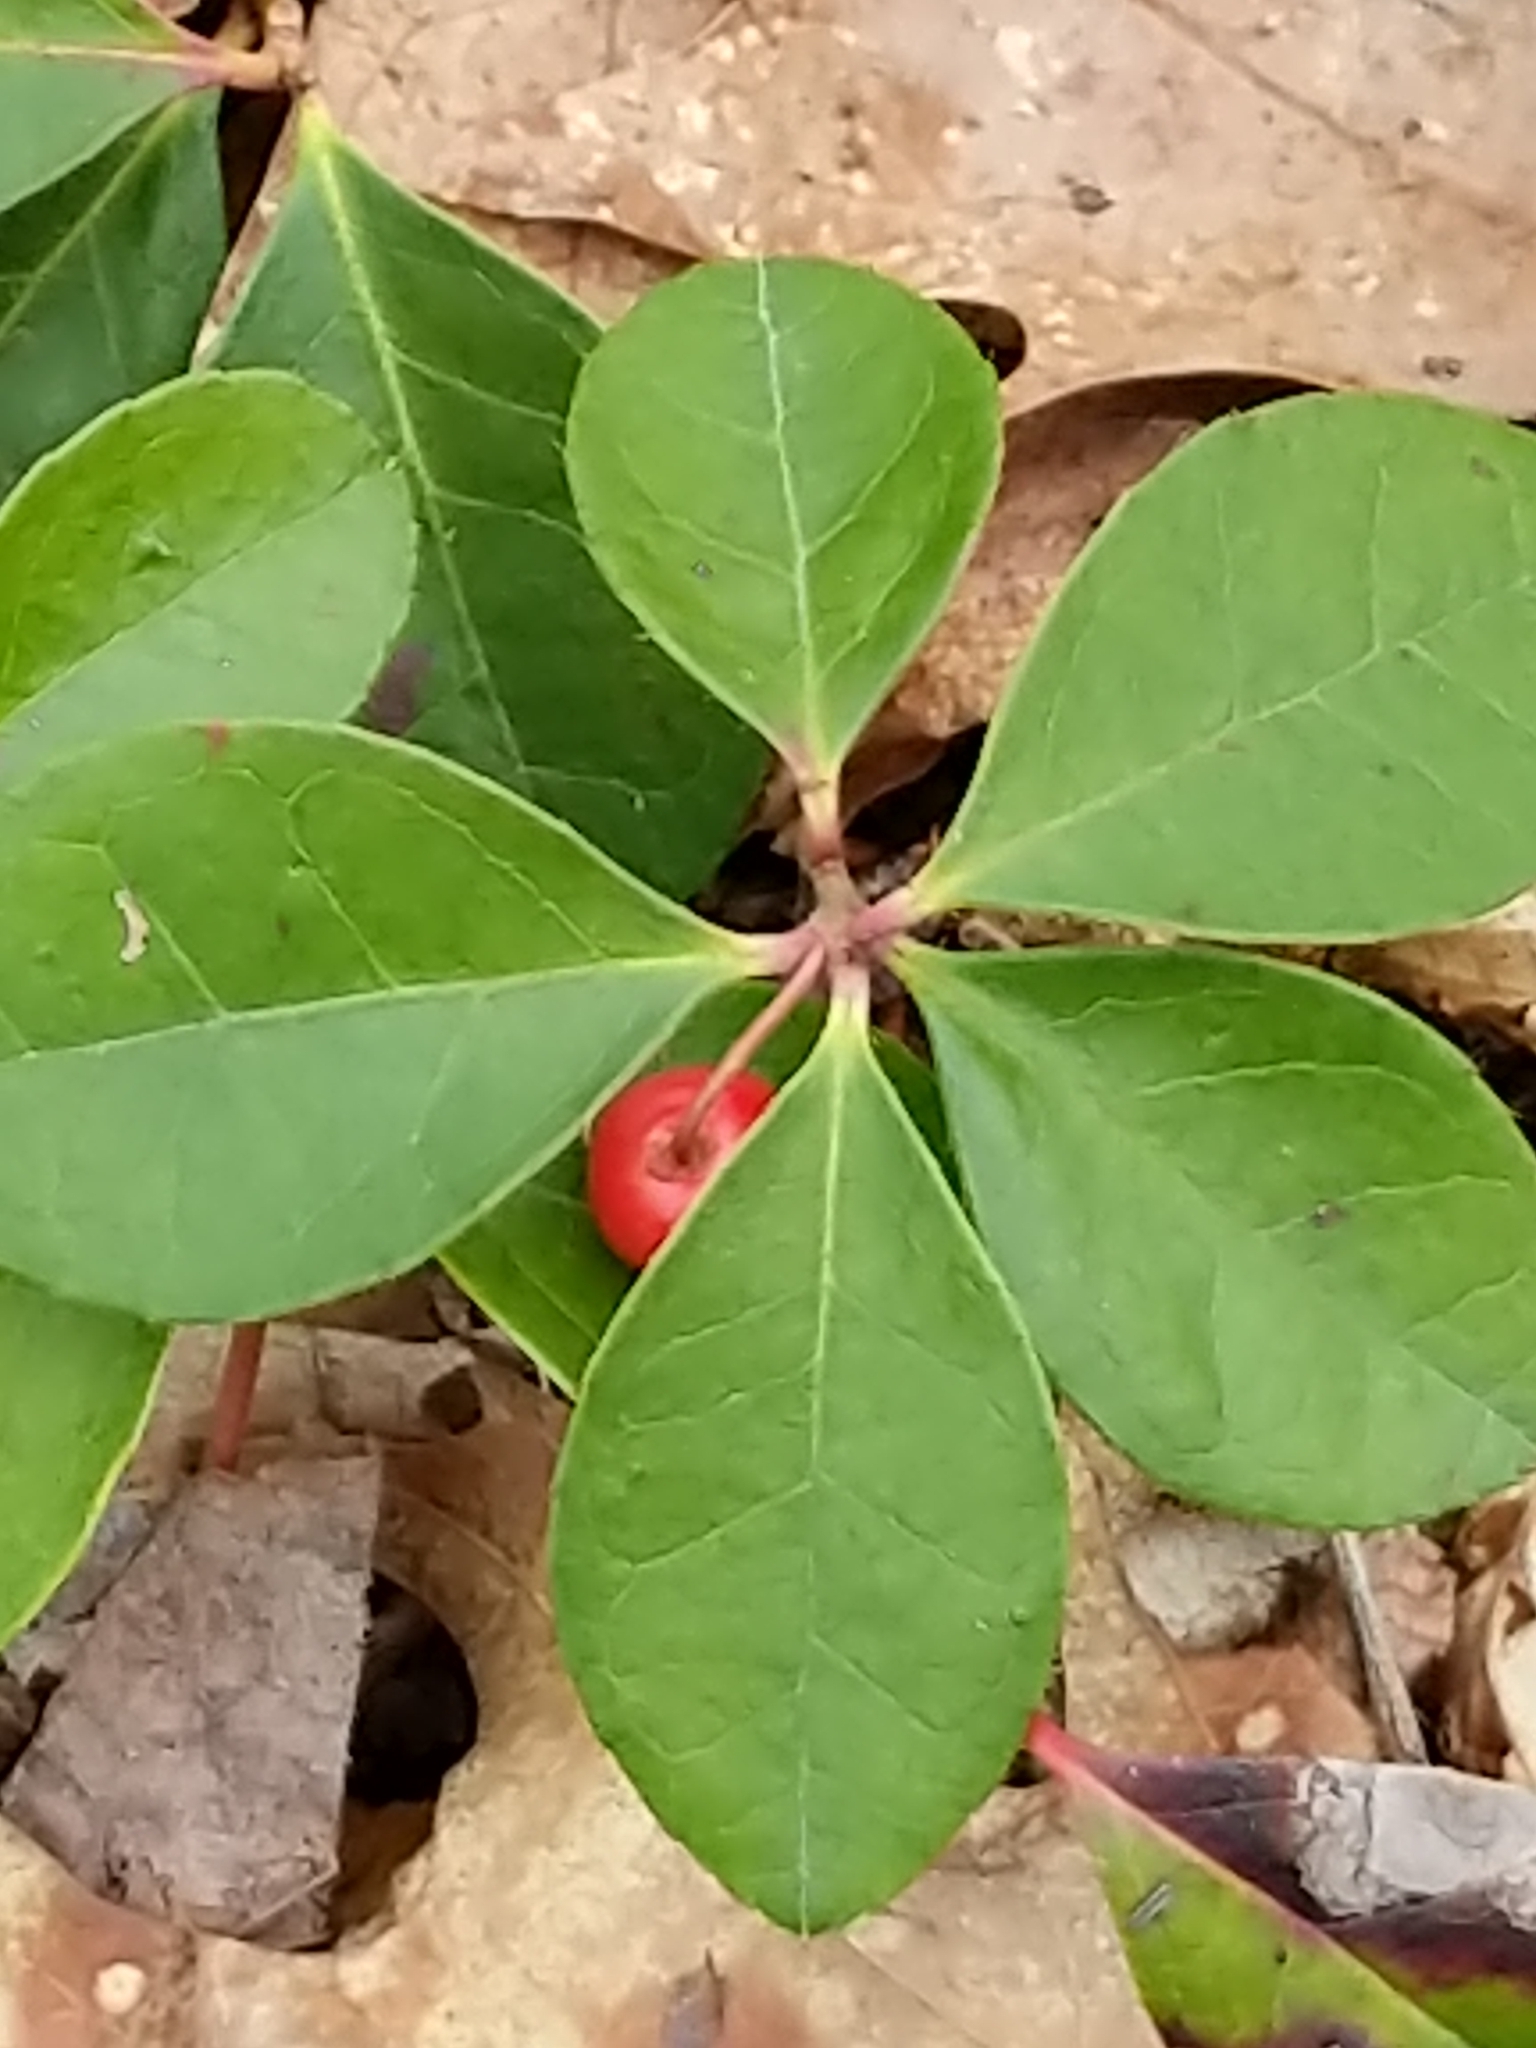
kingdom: Plantae
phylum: Tracheophyta
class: Magnoliopsida
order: Ericales
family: Ericaceae
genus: Gaultheria
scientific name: Gaultheria procumbens
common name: Checkerberry
